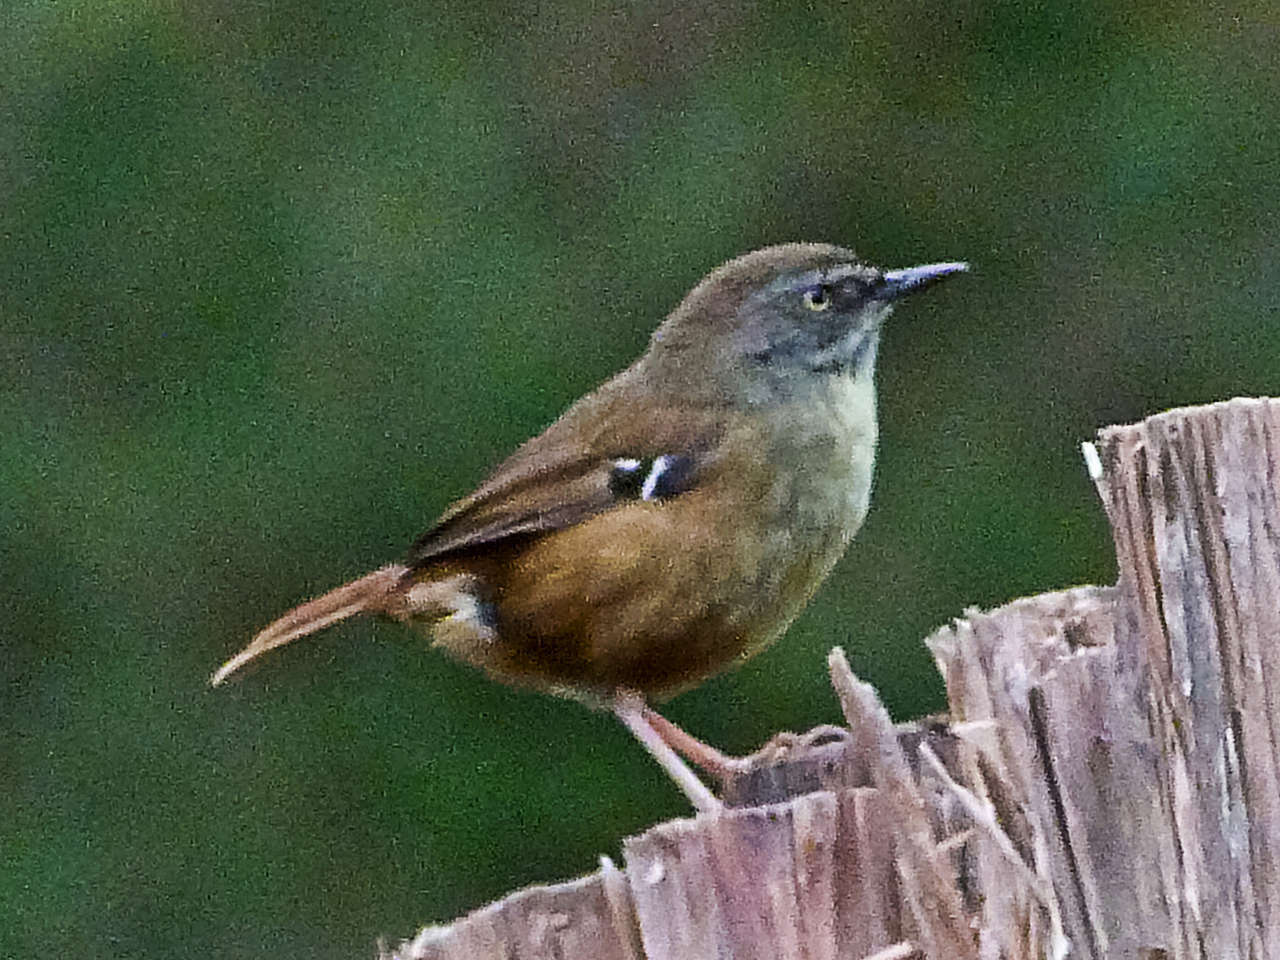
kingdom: Animalia
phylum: Chordata
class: Aves
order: Passeriformes
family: Acanthizidae
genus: Sericornis
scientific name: Sericornis frontalis
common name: White-browed scrubwren
